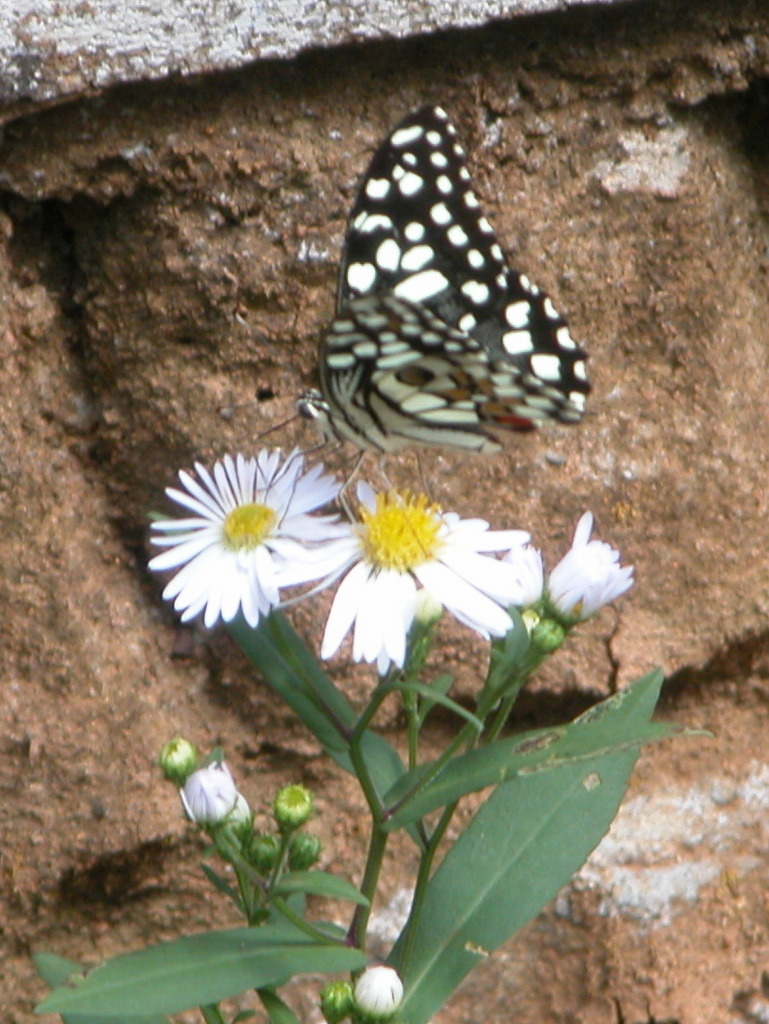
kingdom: Animalia
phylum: Arthropoda
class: Insecta
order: Lepidoptera
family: Papilionidae
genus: Papilio
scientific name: Papilio demoleus
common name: Lime butterfly
